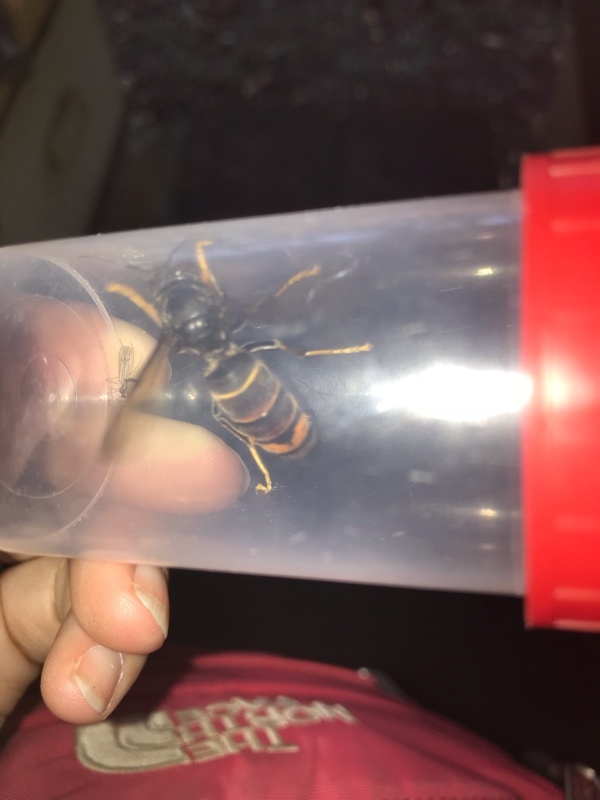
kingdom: Animalia
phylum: Arthropoda
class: Insecta
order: Hymenoptera
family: Vespidae
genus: Vespa
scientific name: Vespa velutina
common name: Asian hornet
